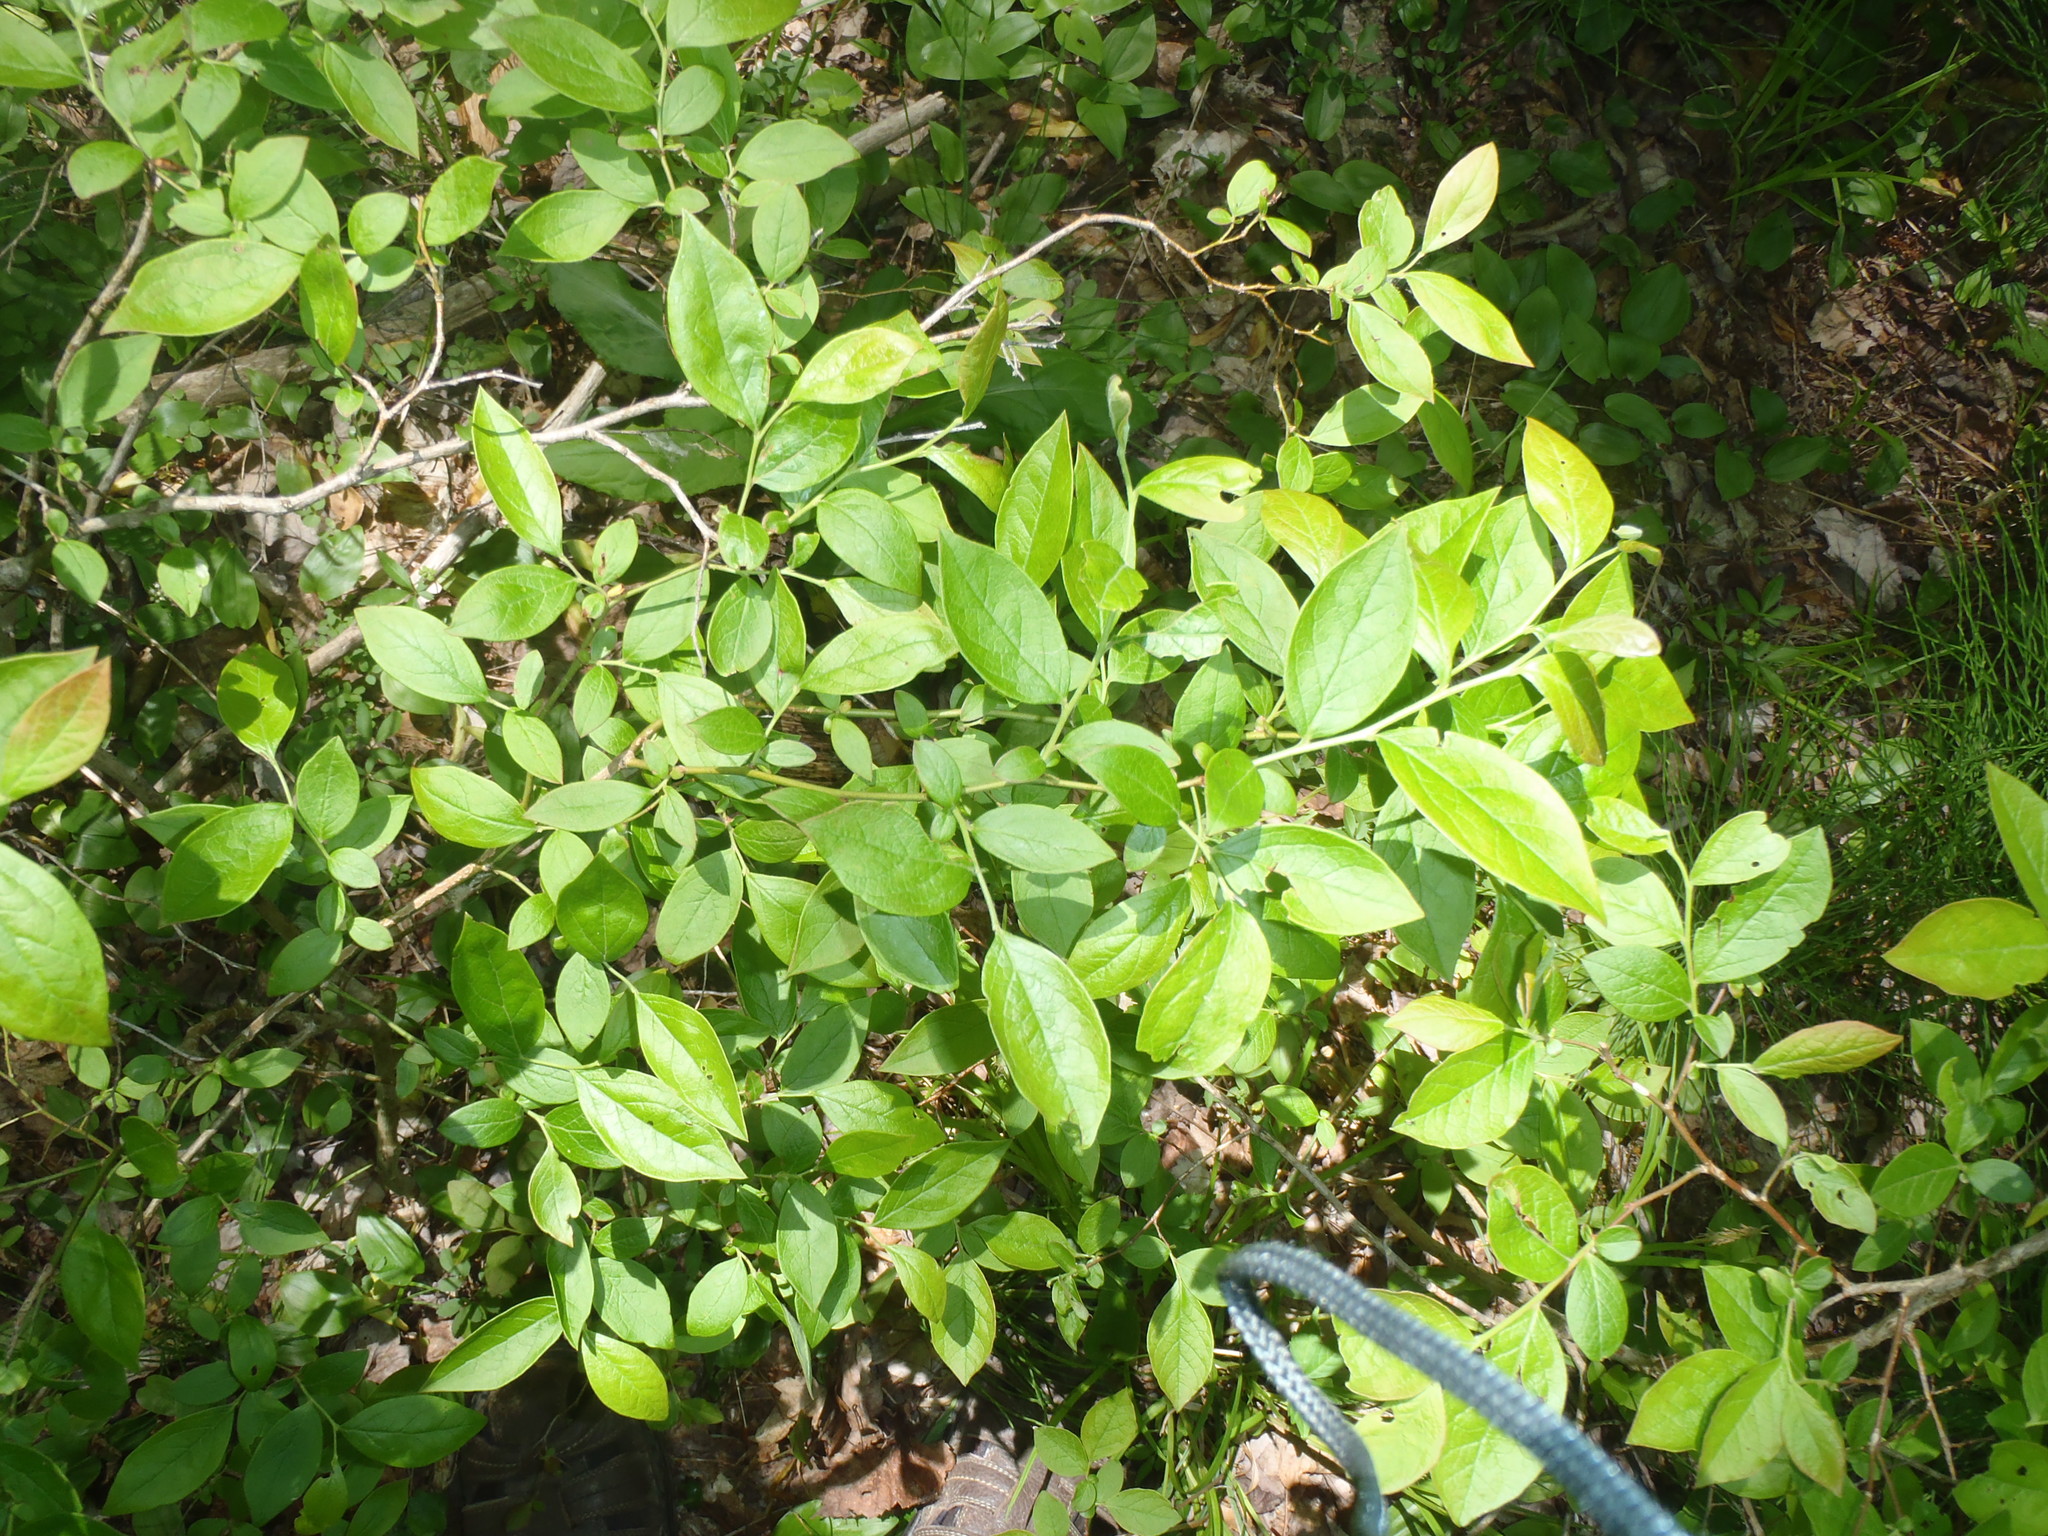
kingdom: Plantae
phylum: Tracheophyta
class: Magnoliopsida
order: Ericales
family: Ericaceae
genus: Vaccinium
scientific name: Vaccinium corymbosum
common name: Blueberry
